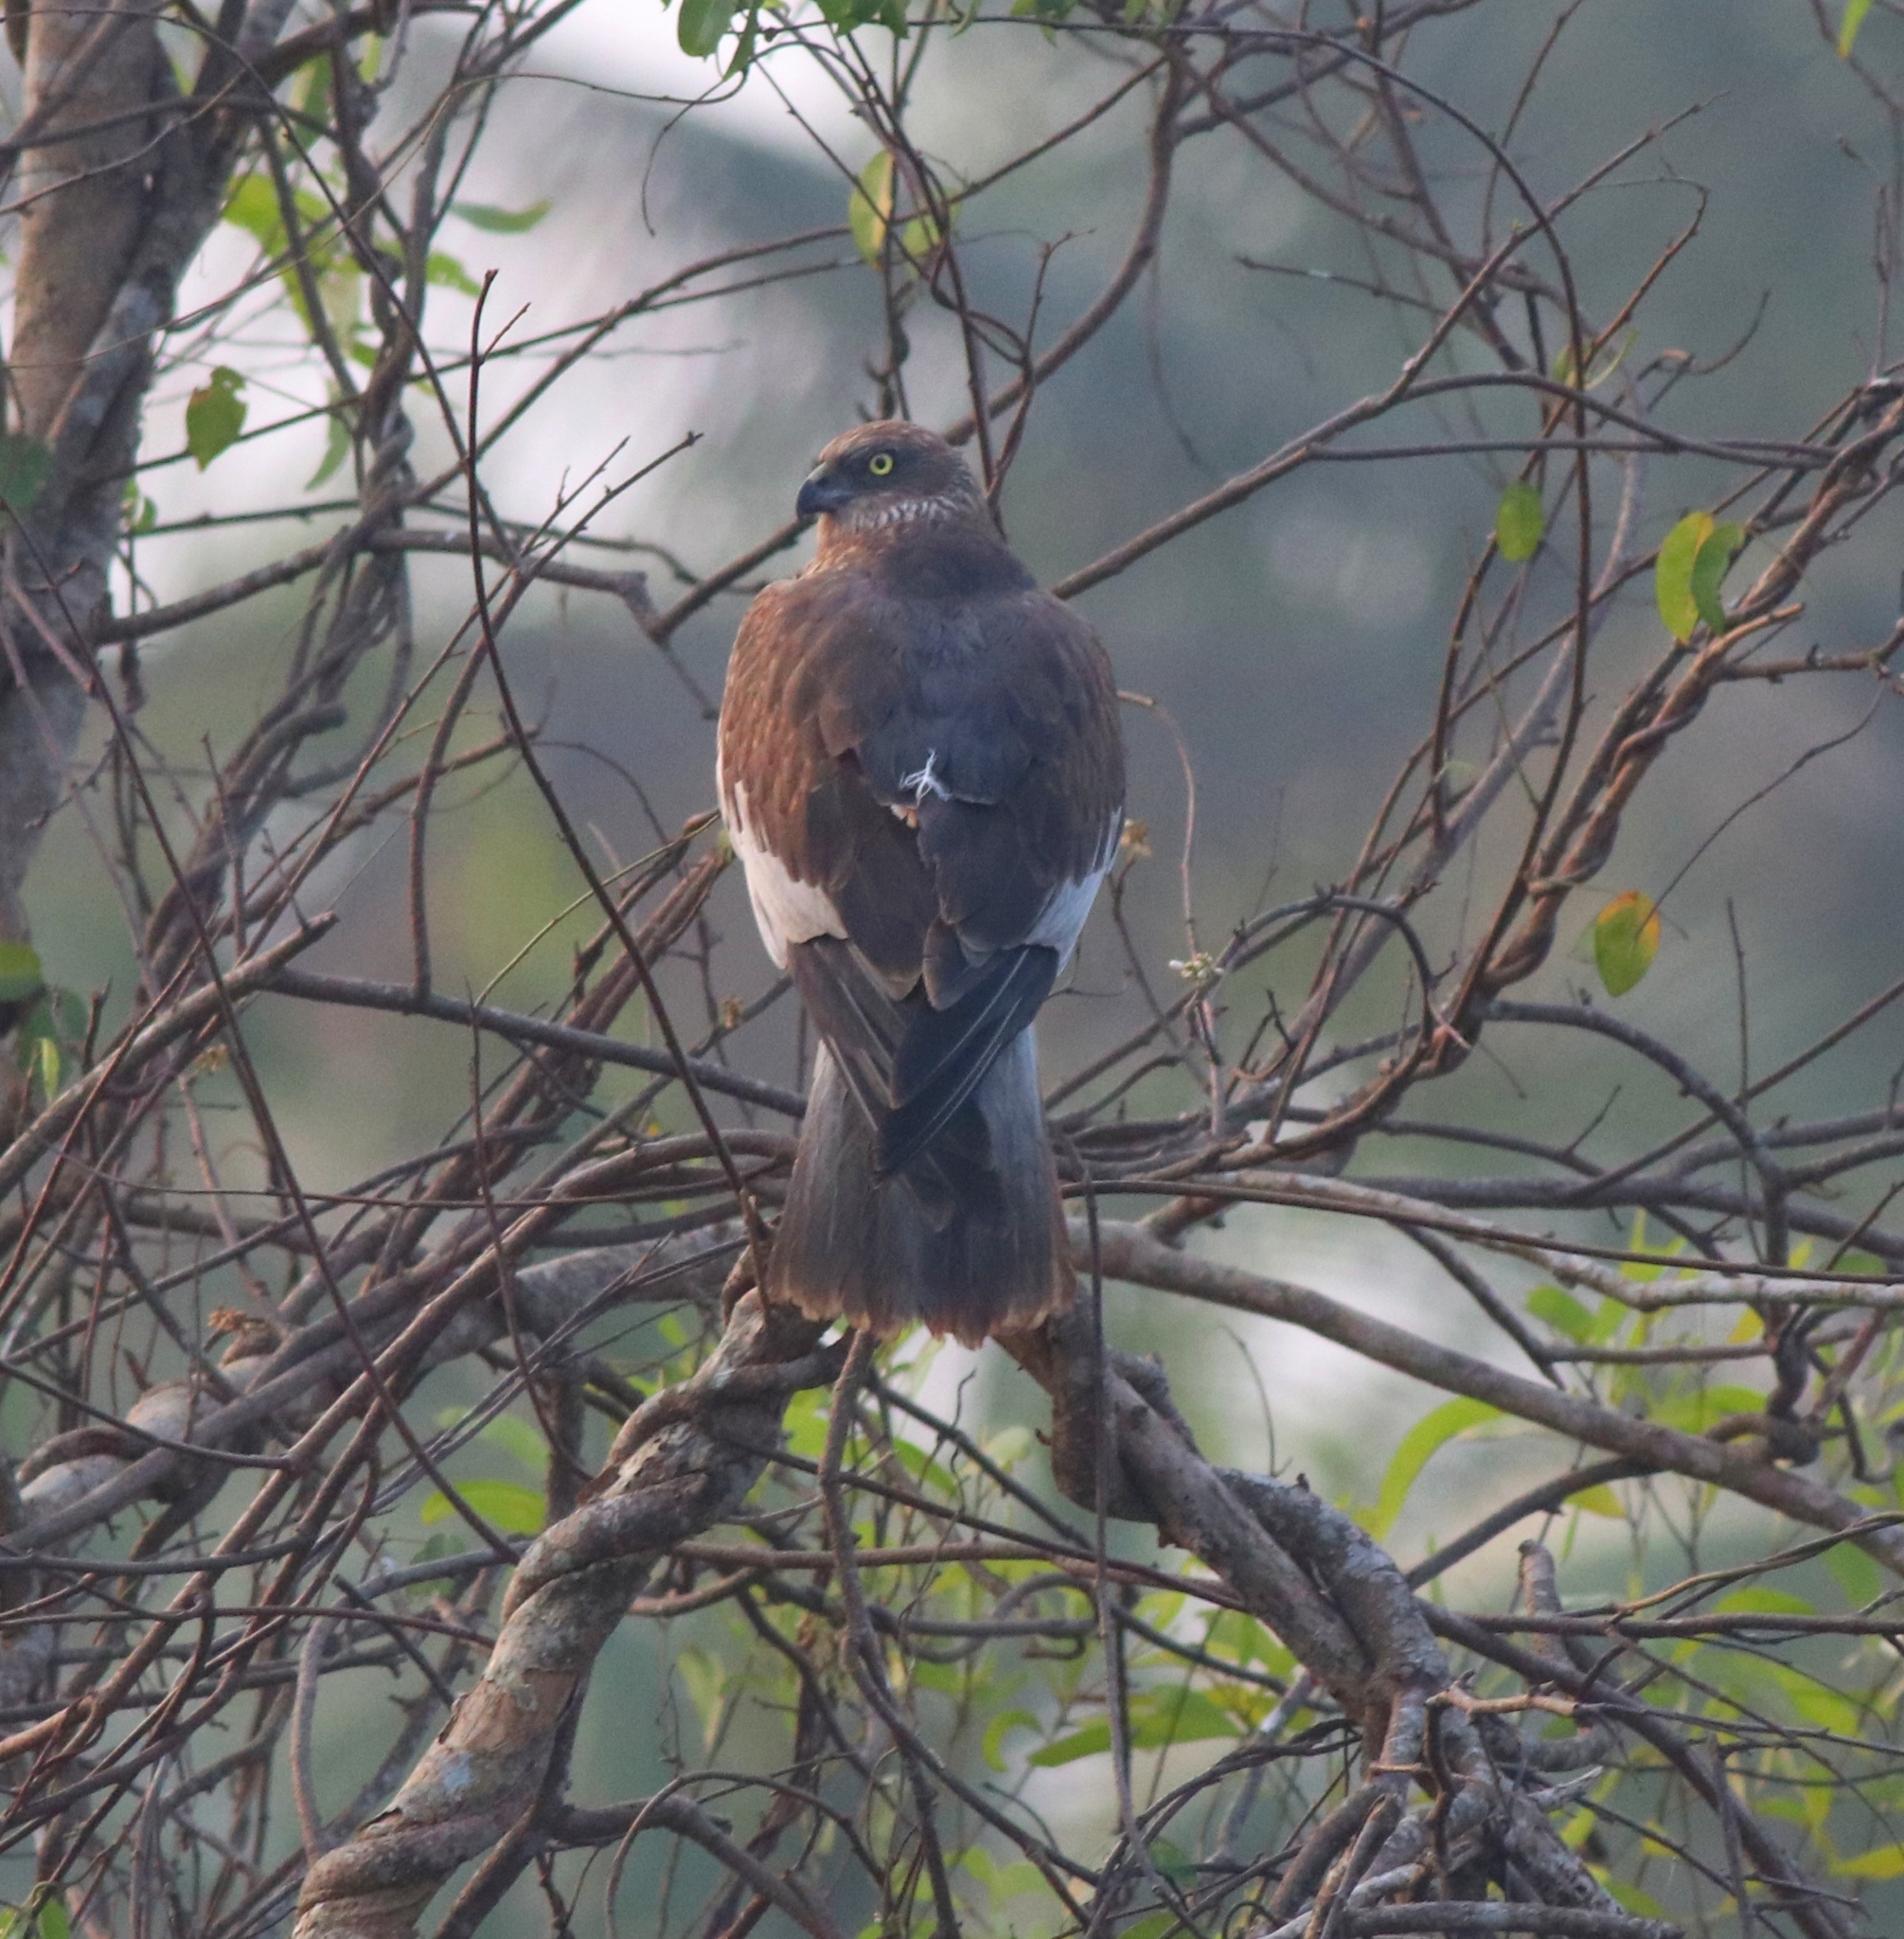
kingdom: Animalia
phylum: Chordata
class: Aves
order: Accipitriformes
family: Accipitridae
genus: Circus
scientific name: Circus aeruginosus
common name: Western marsh harrier
